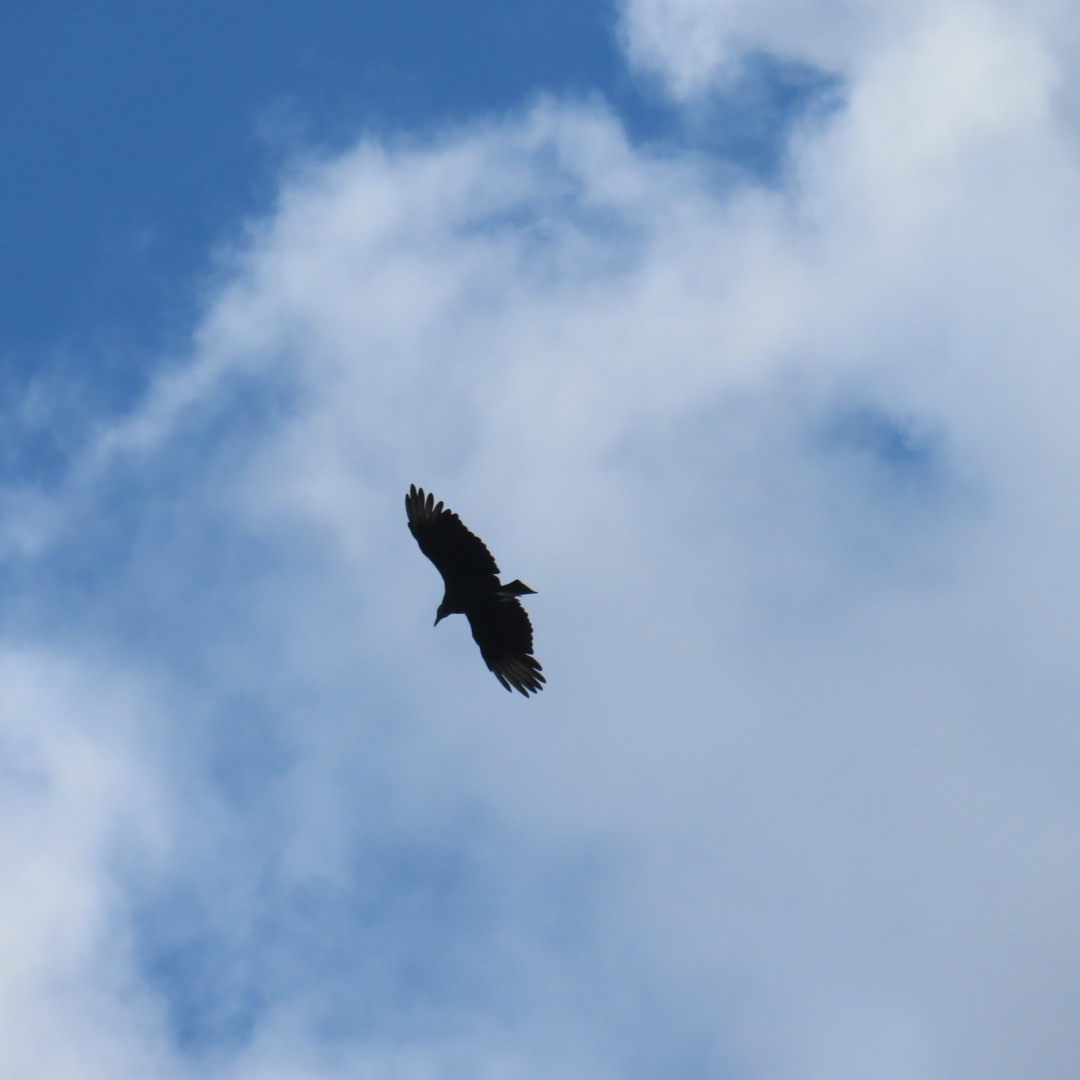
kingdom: Animalia
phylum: Chordata
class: Aves
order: Accipitriformes
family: Cathartidae
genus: Coragyps
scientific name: Coragyps atratus
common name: Black vulture
